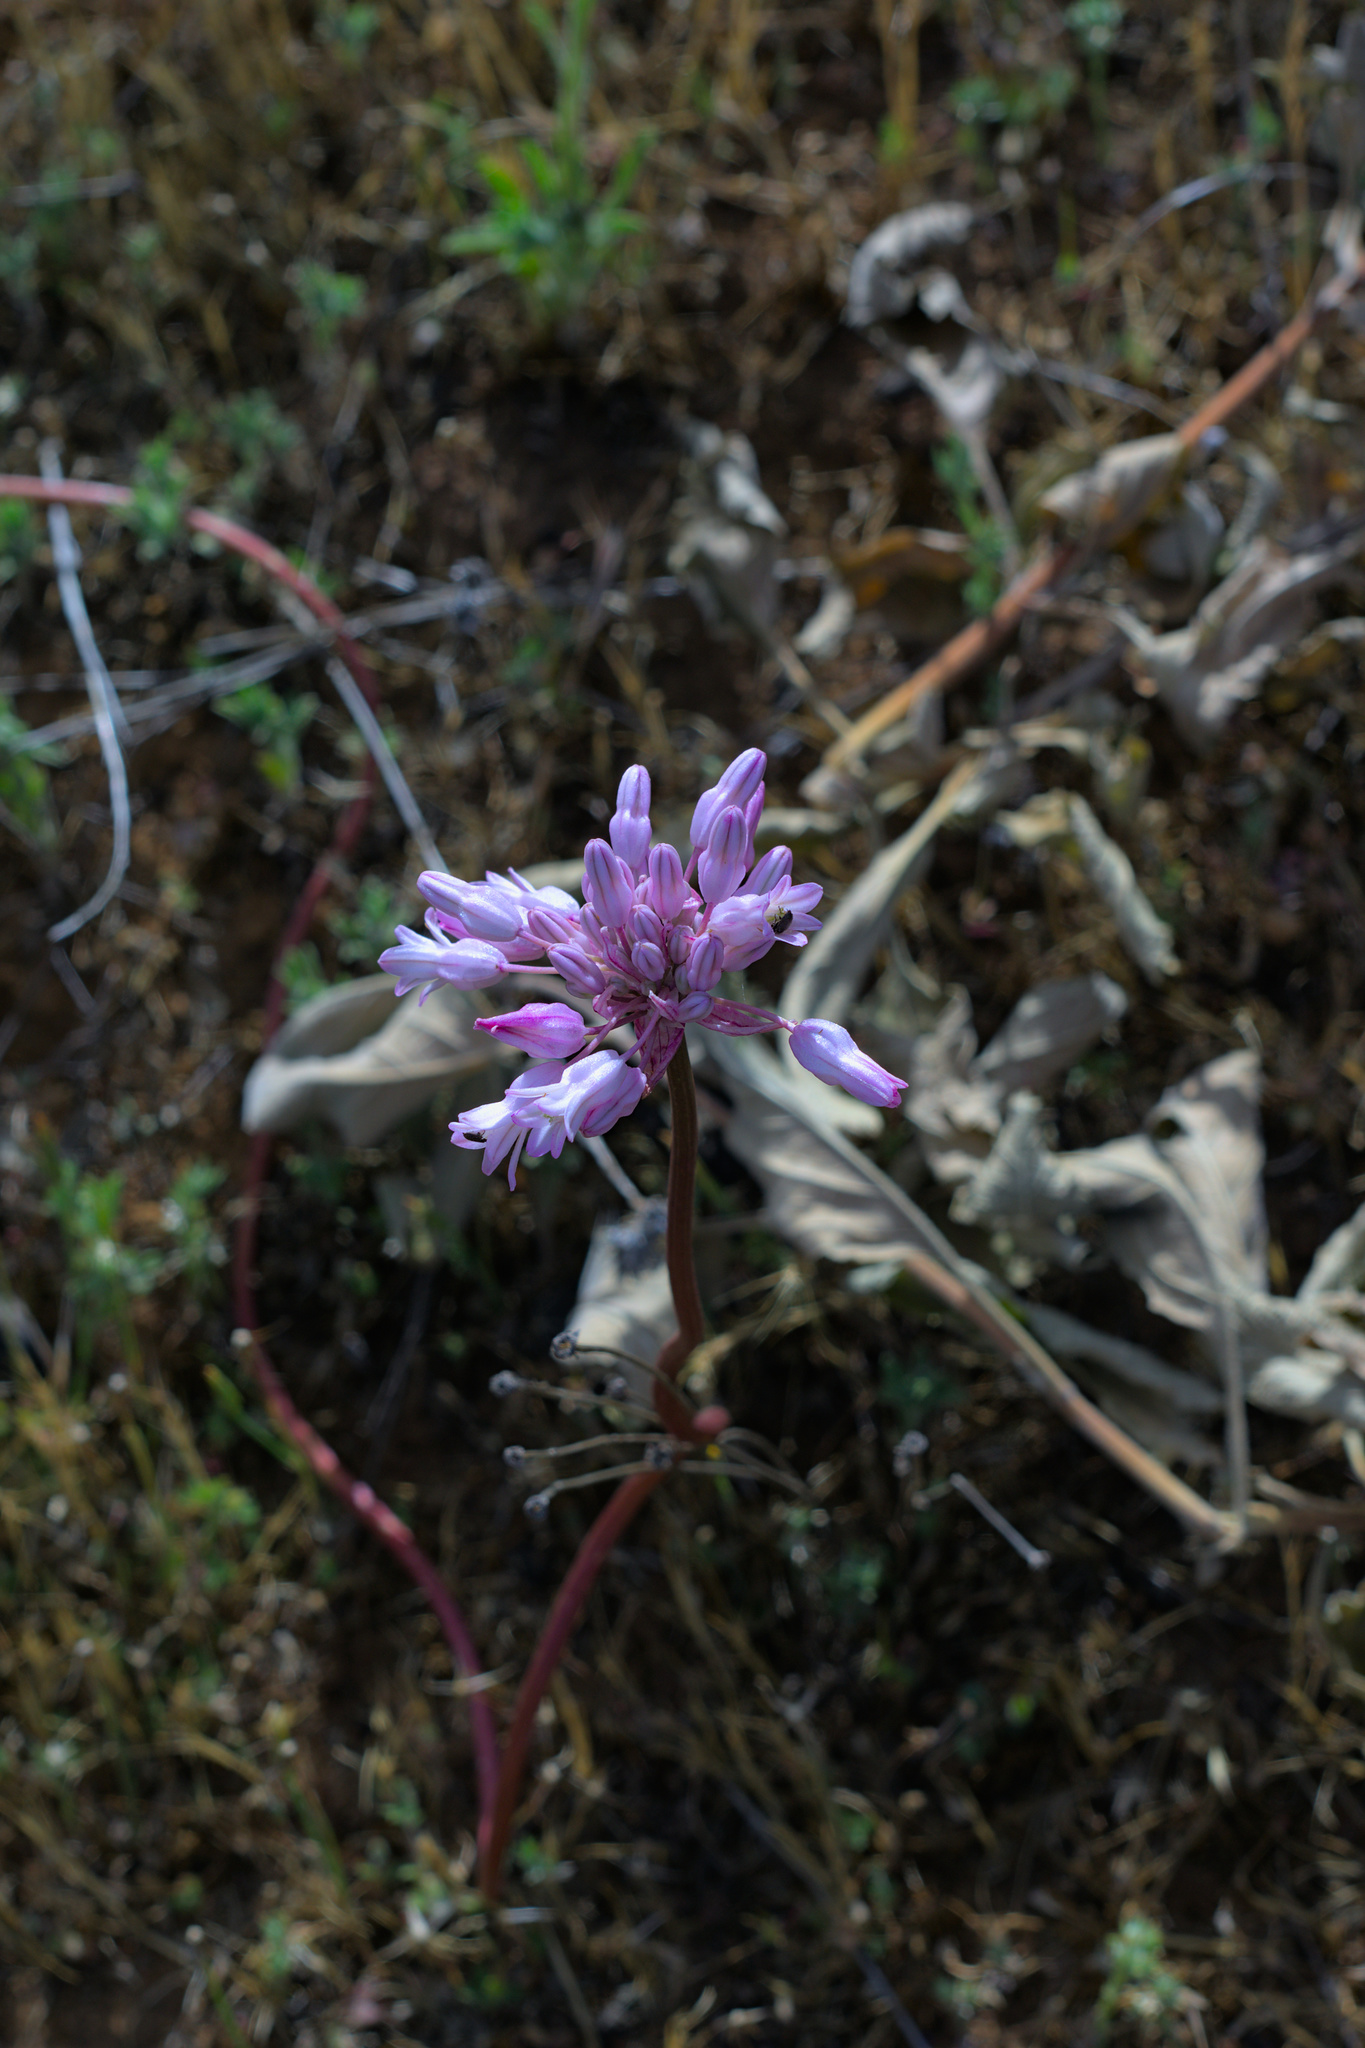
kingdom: Plantae
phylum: Tracheophyta
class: Liliopsida
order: Asparagales
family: Asparagaceae
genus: Dichelostemma
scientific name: Dichelostemma volubile
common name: Trining brodiaea
